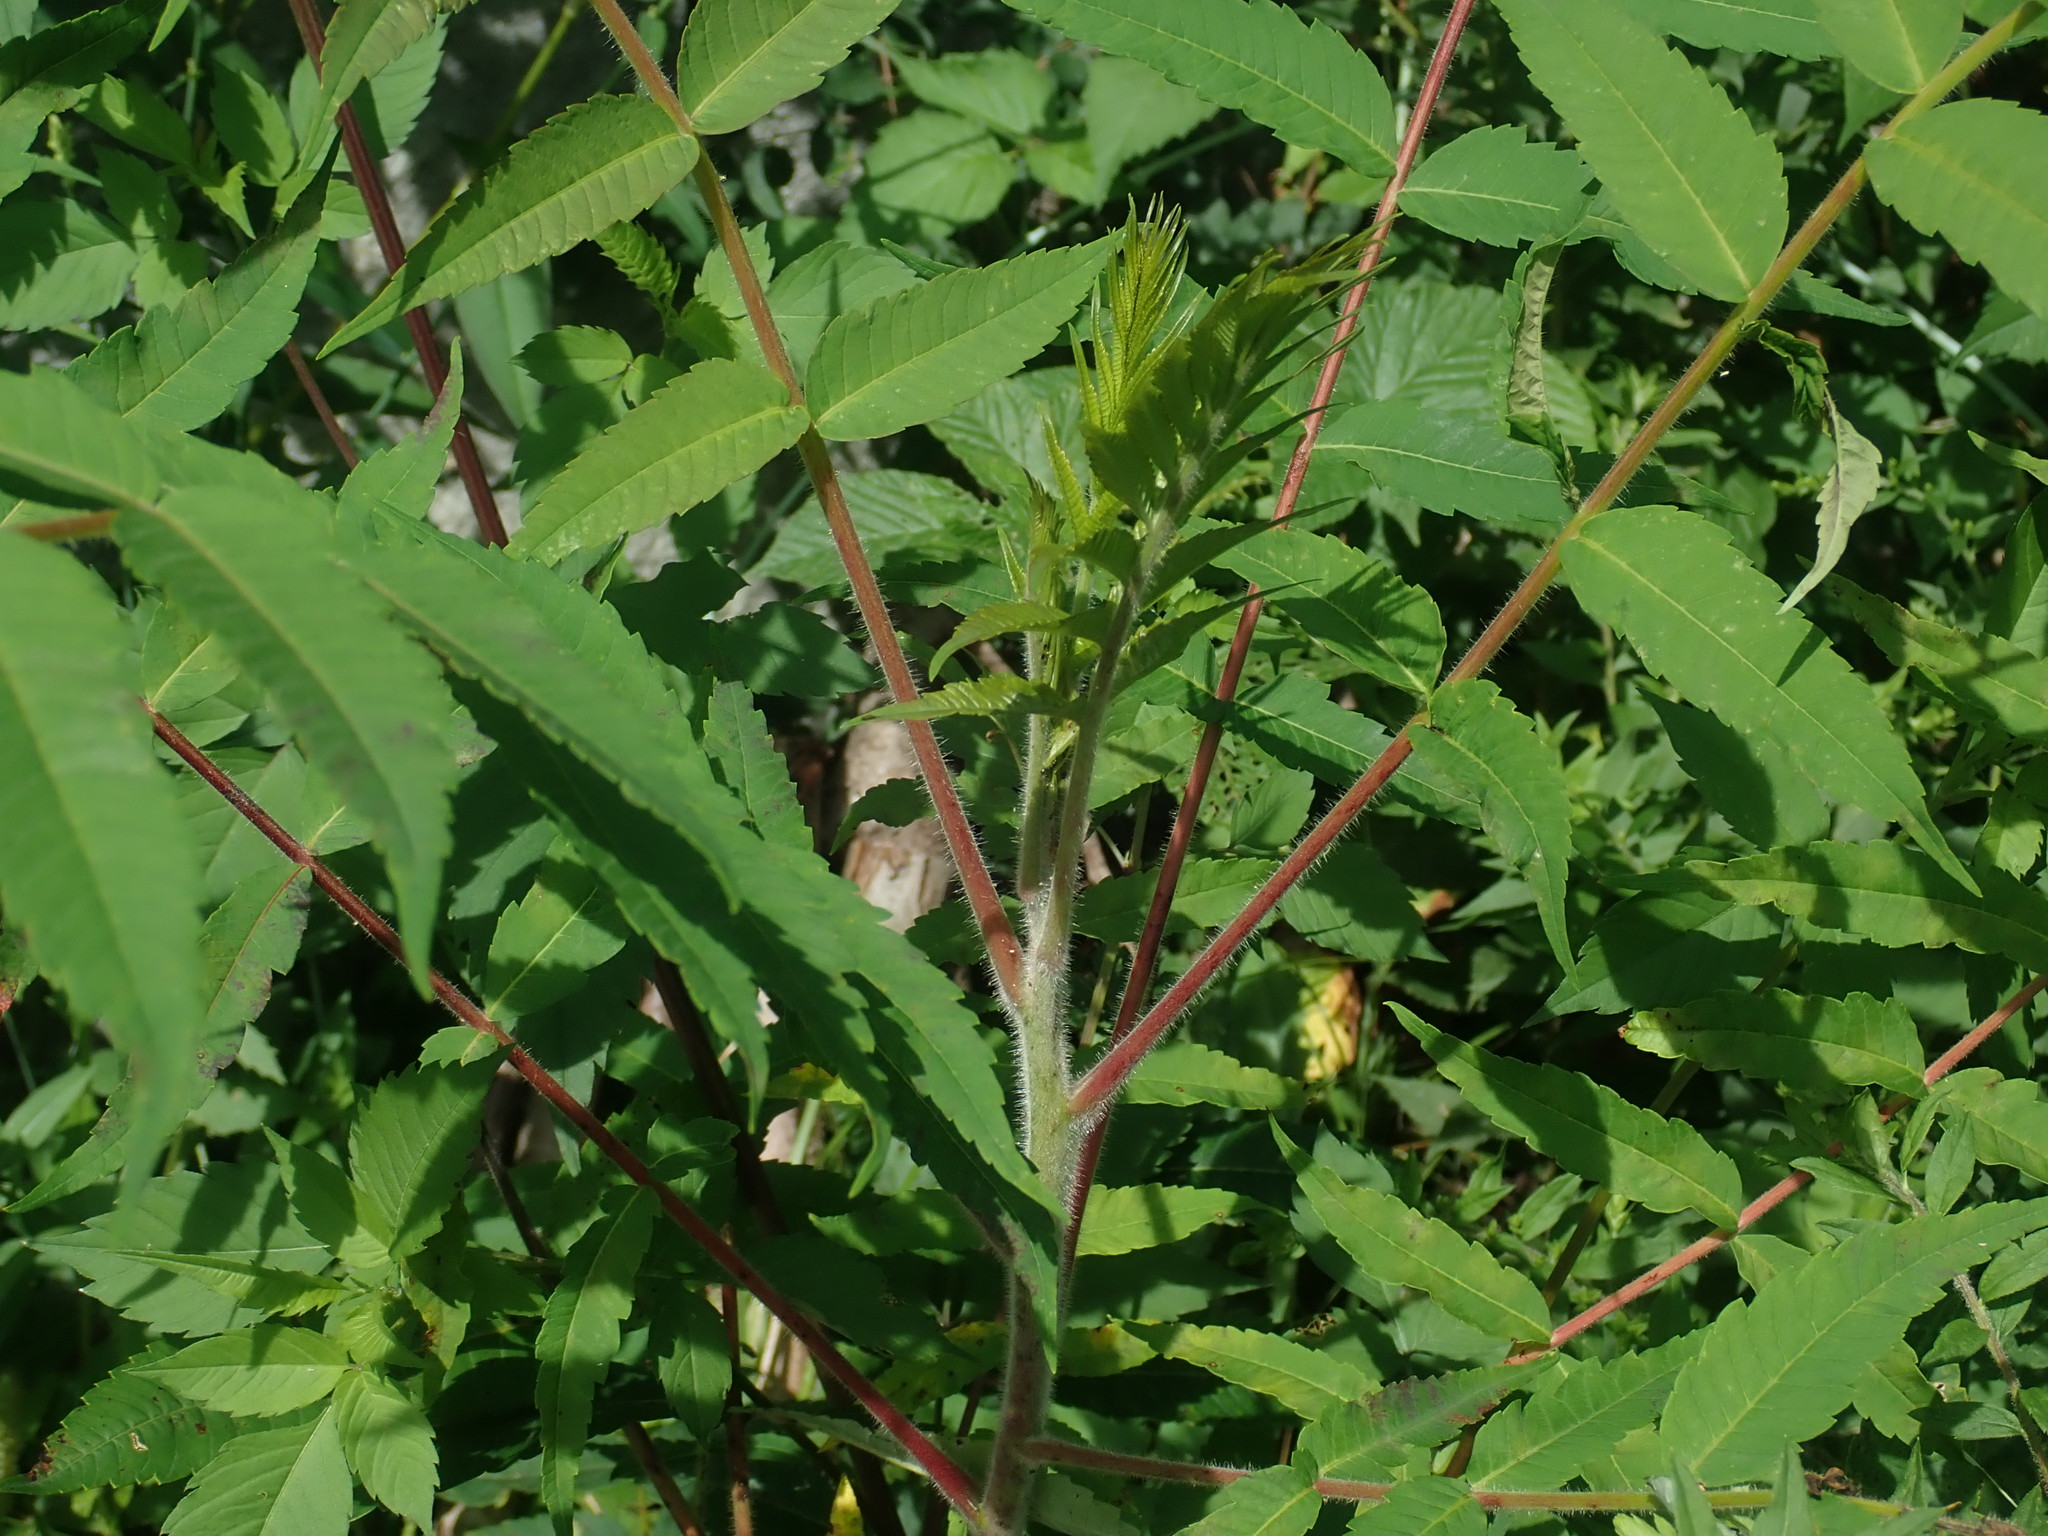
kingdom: Plantae
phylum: Tracheophyta
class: Magnoliopsida
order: Sapindales
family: Anacardiaceae
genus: Rhus
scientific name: Rhus typhina
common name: Staghorn sumac
